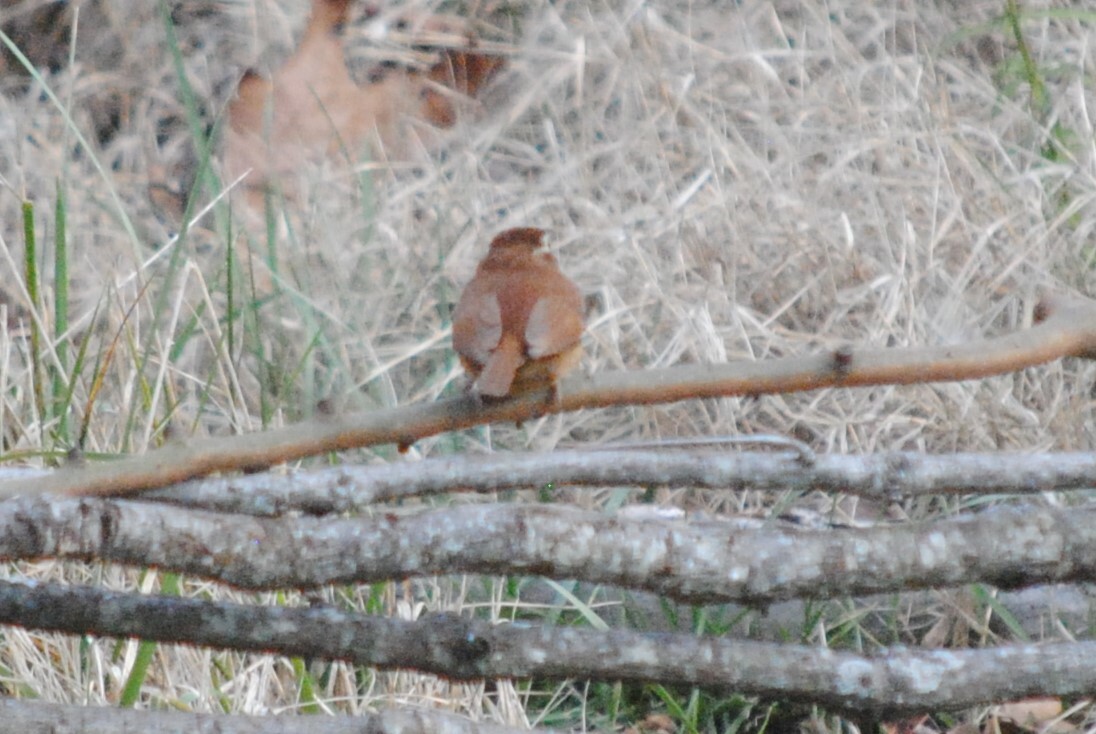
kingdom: Animalia
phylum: Chordata
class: Aves
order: Passeriformes
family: Troglodytidae
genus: Thryothorus
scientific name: Thryothorus ludovicianus
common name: Carolina wren
